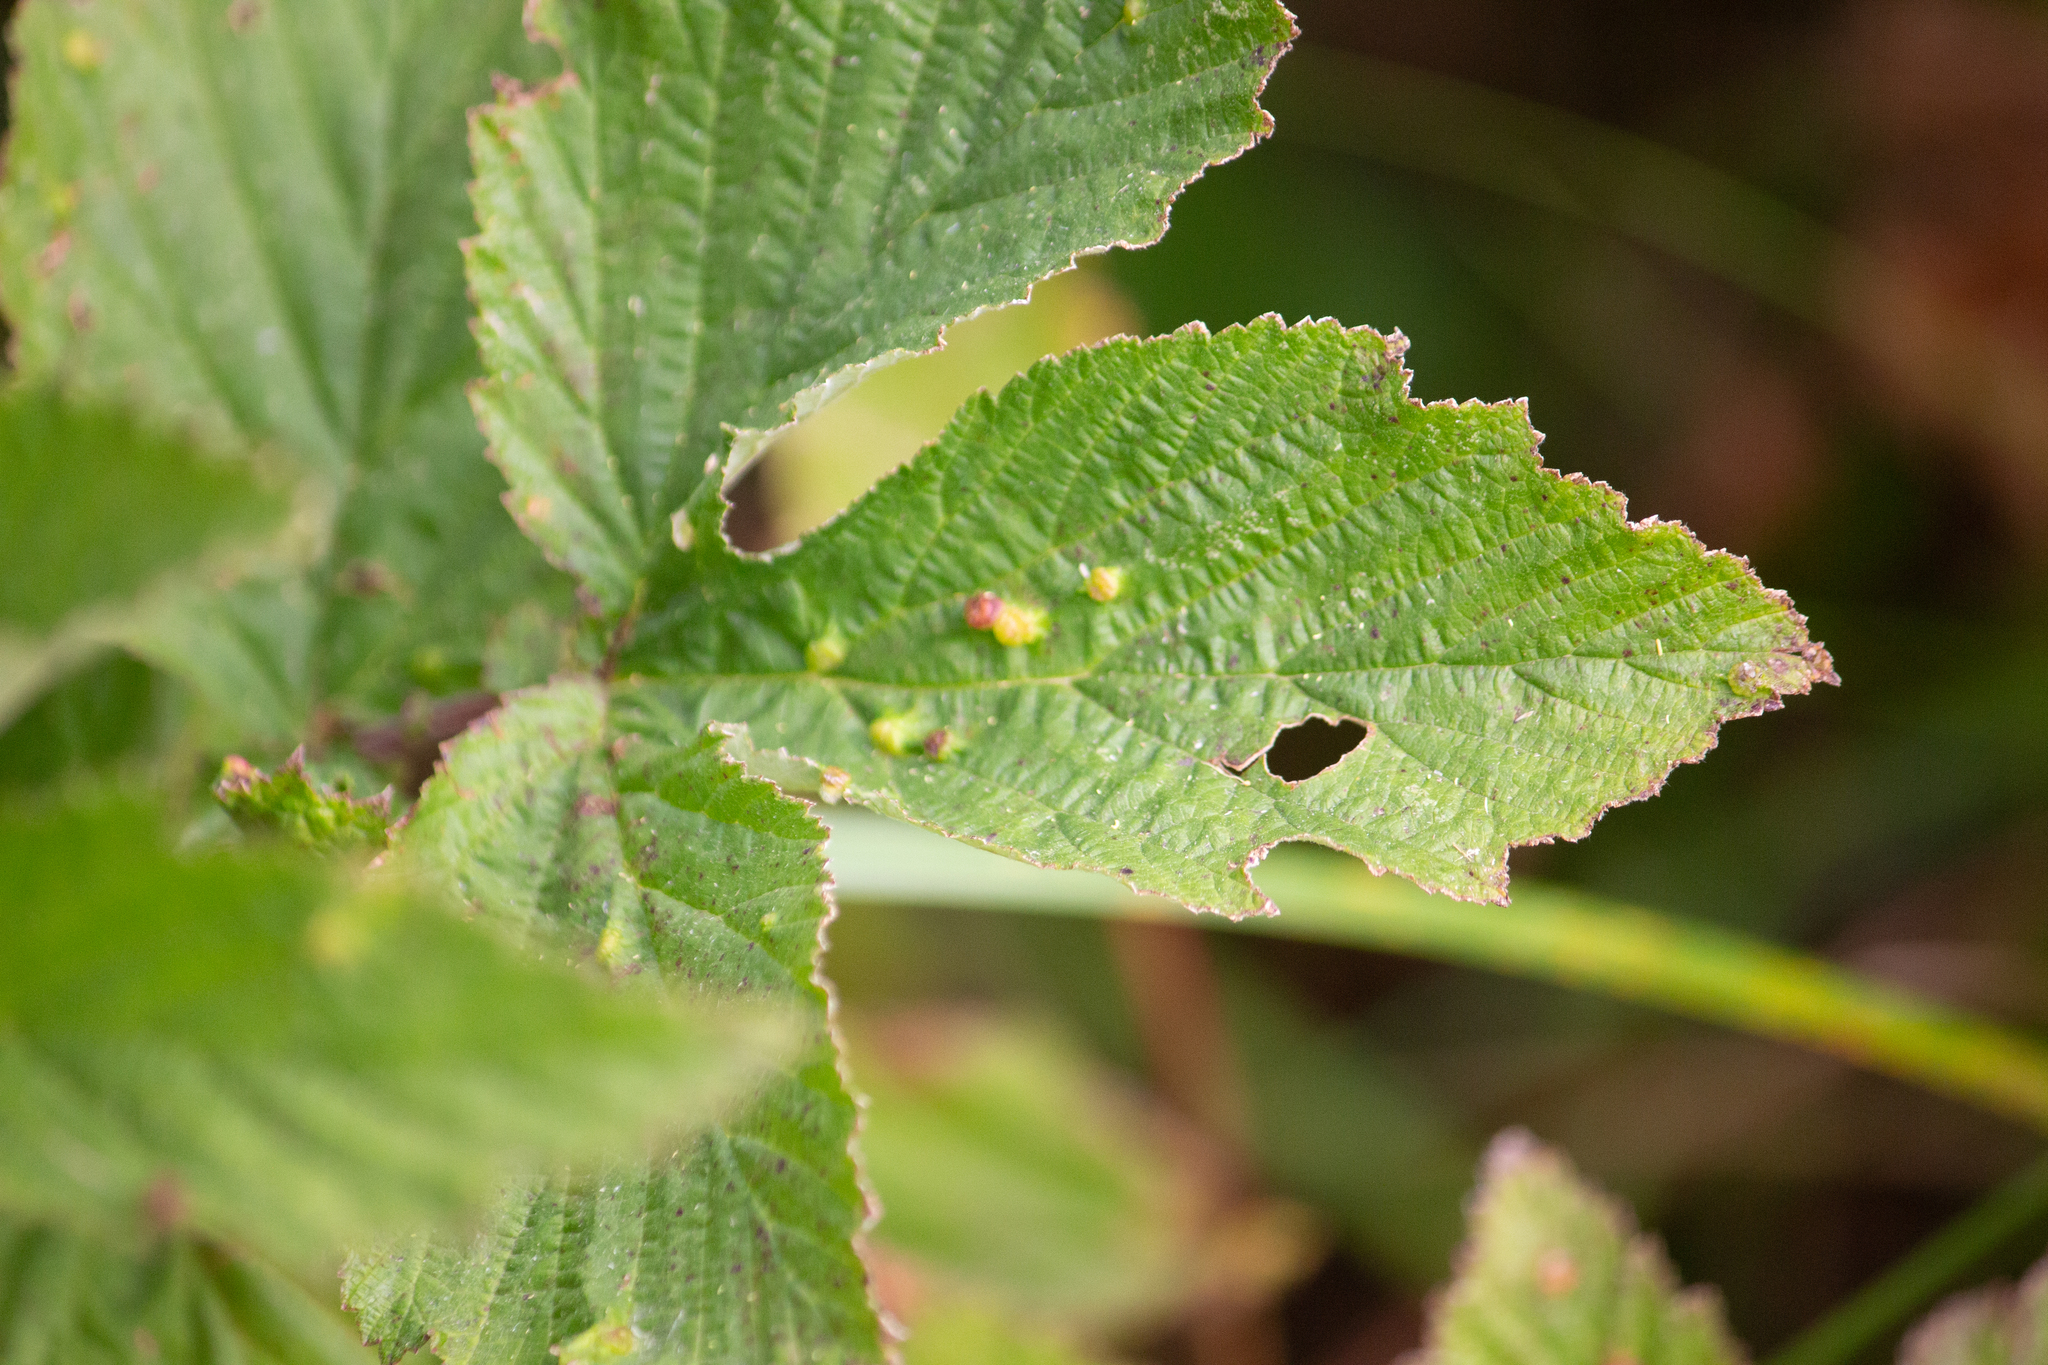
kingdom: Animalia
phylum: Arthropoda
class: Insecta
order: Diptera
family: Cecidomyiidae
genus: Dasineura
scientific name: Dasineura ulmaria
